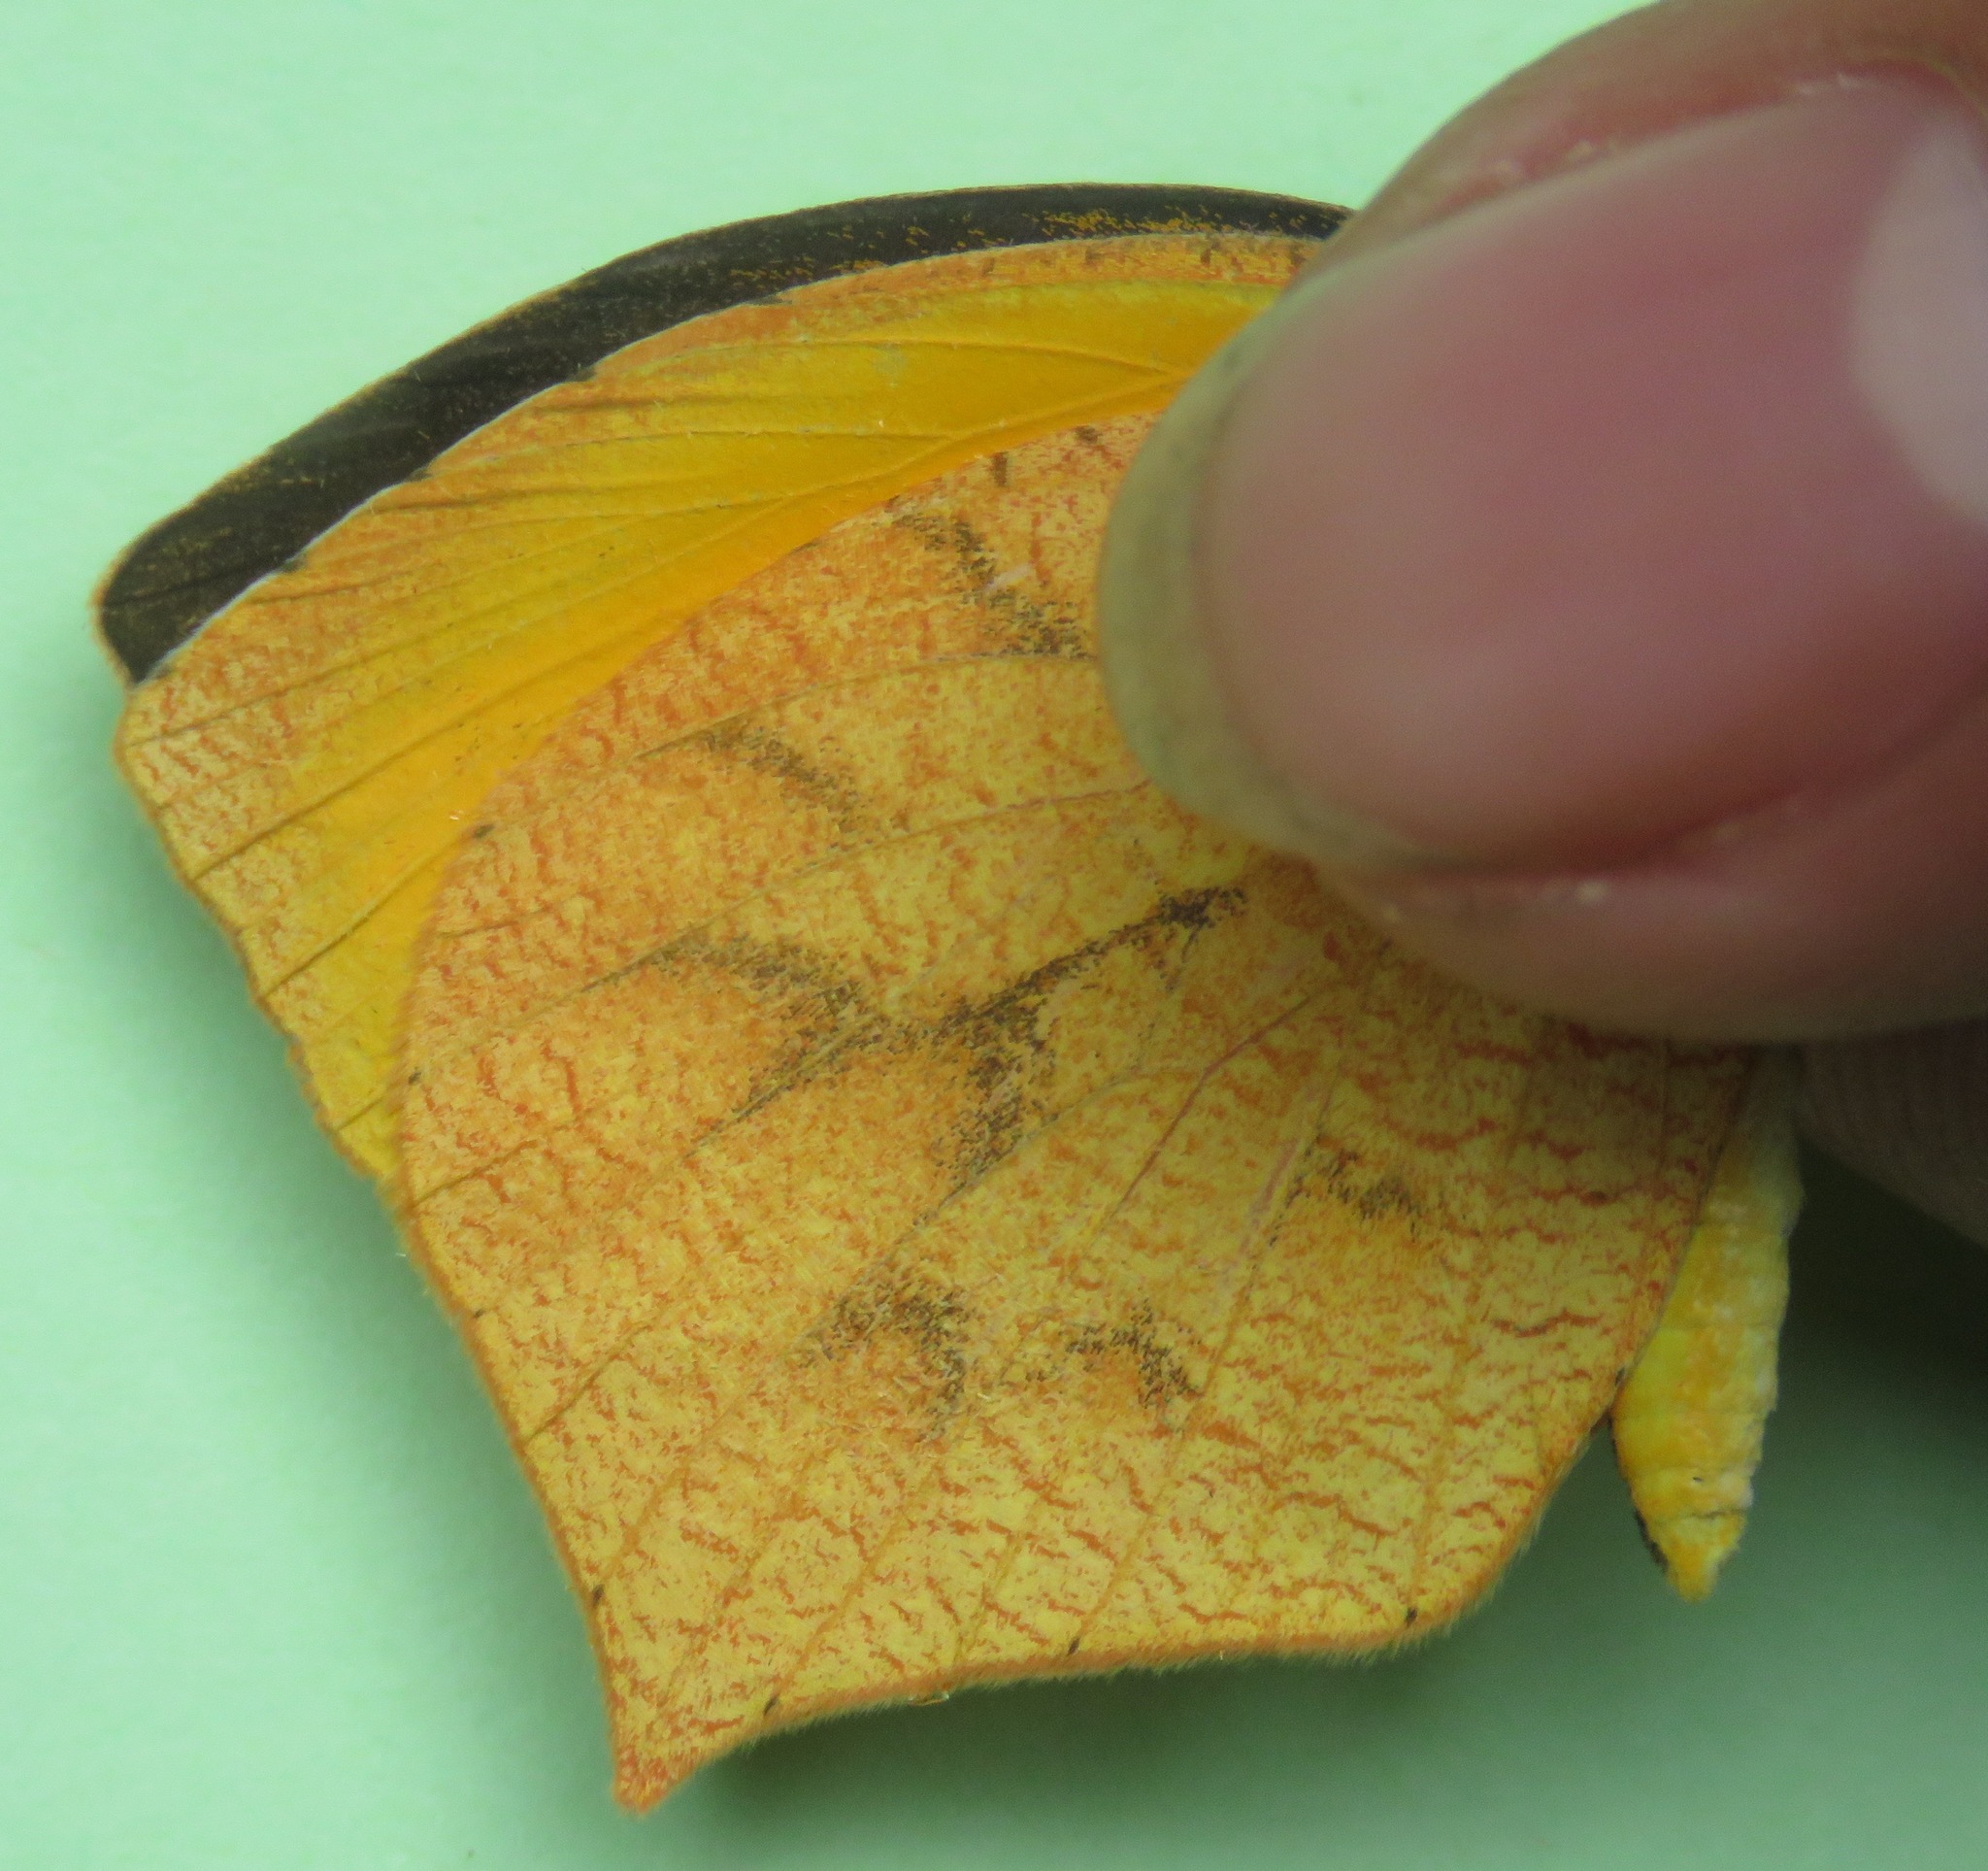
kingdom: Animalia
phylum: Arthropoda
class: Insecta
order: Lepidoptera
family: Pieridae
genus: Pyrisitia
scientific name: Pyrisitia proterpia
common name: Tailed orange
